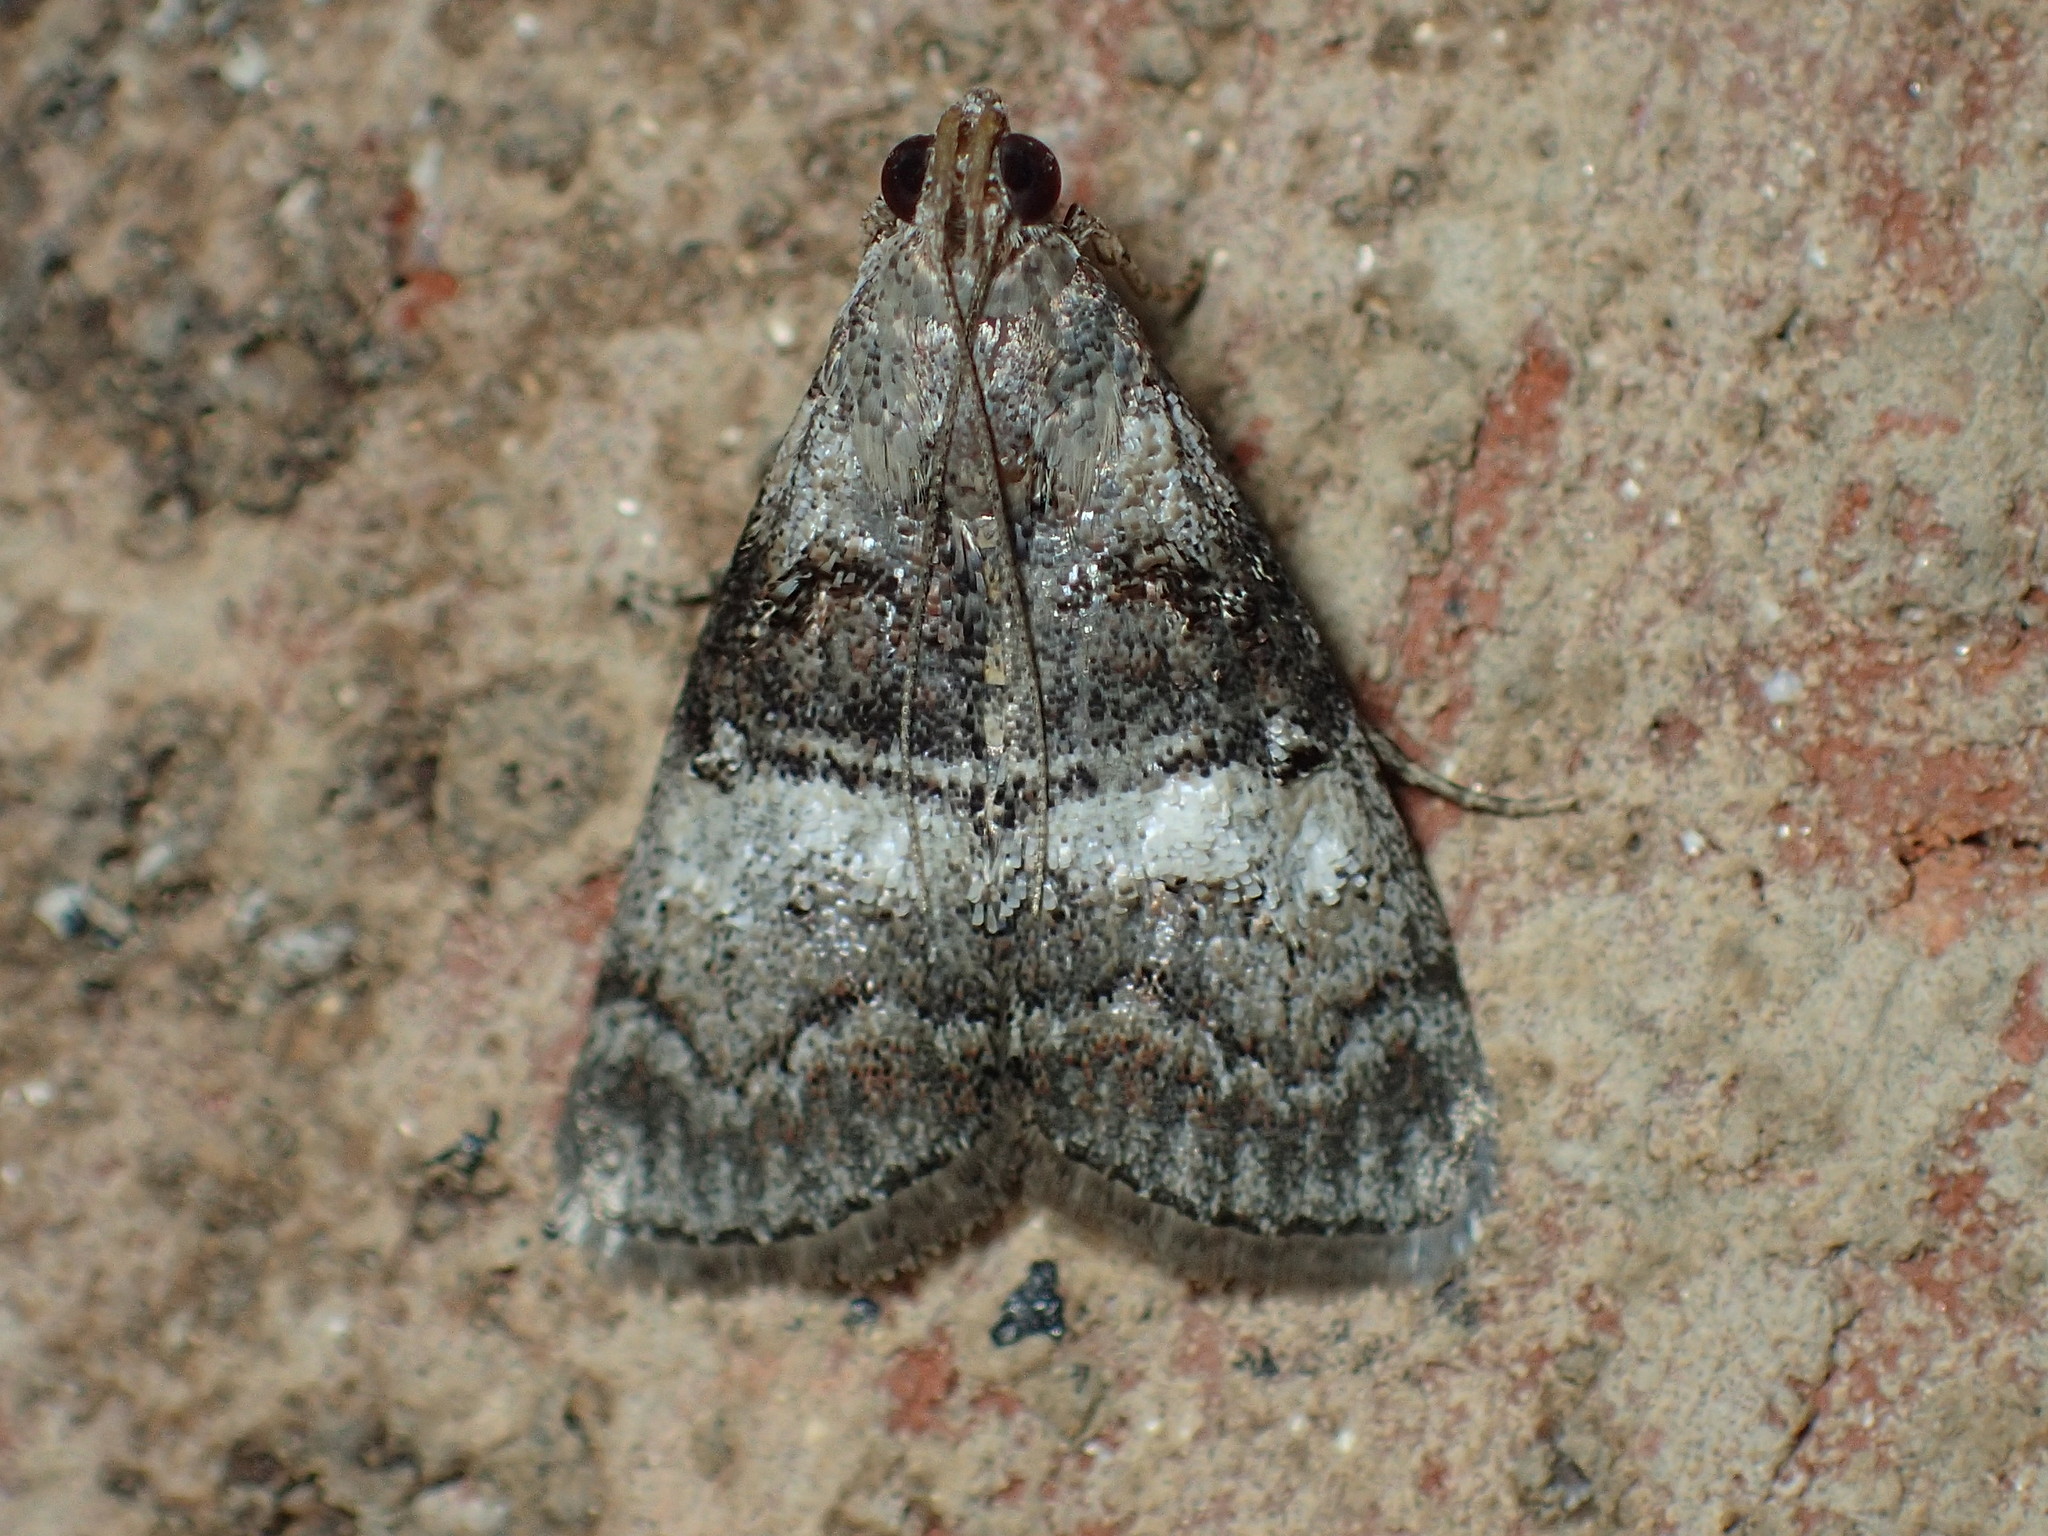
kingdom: Animalia
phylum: Arthropoda
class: Insecta
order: Lepidoptera
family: Pyralidae
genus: Pococera
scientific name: Pococera asperatella
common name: Maple webworm moth
